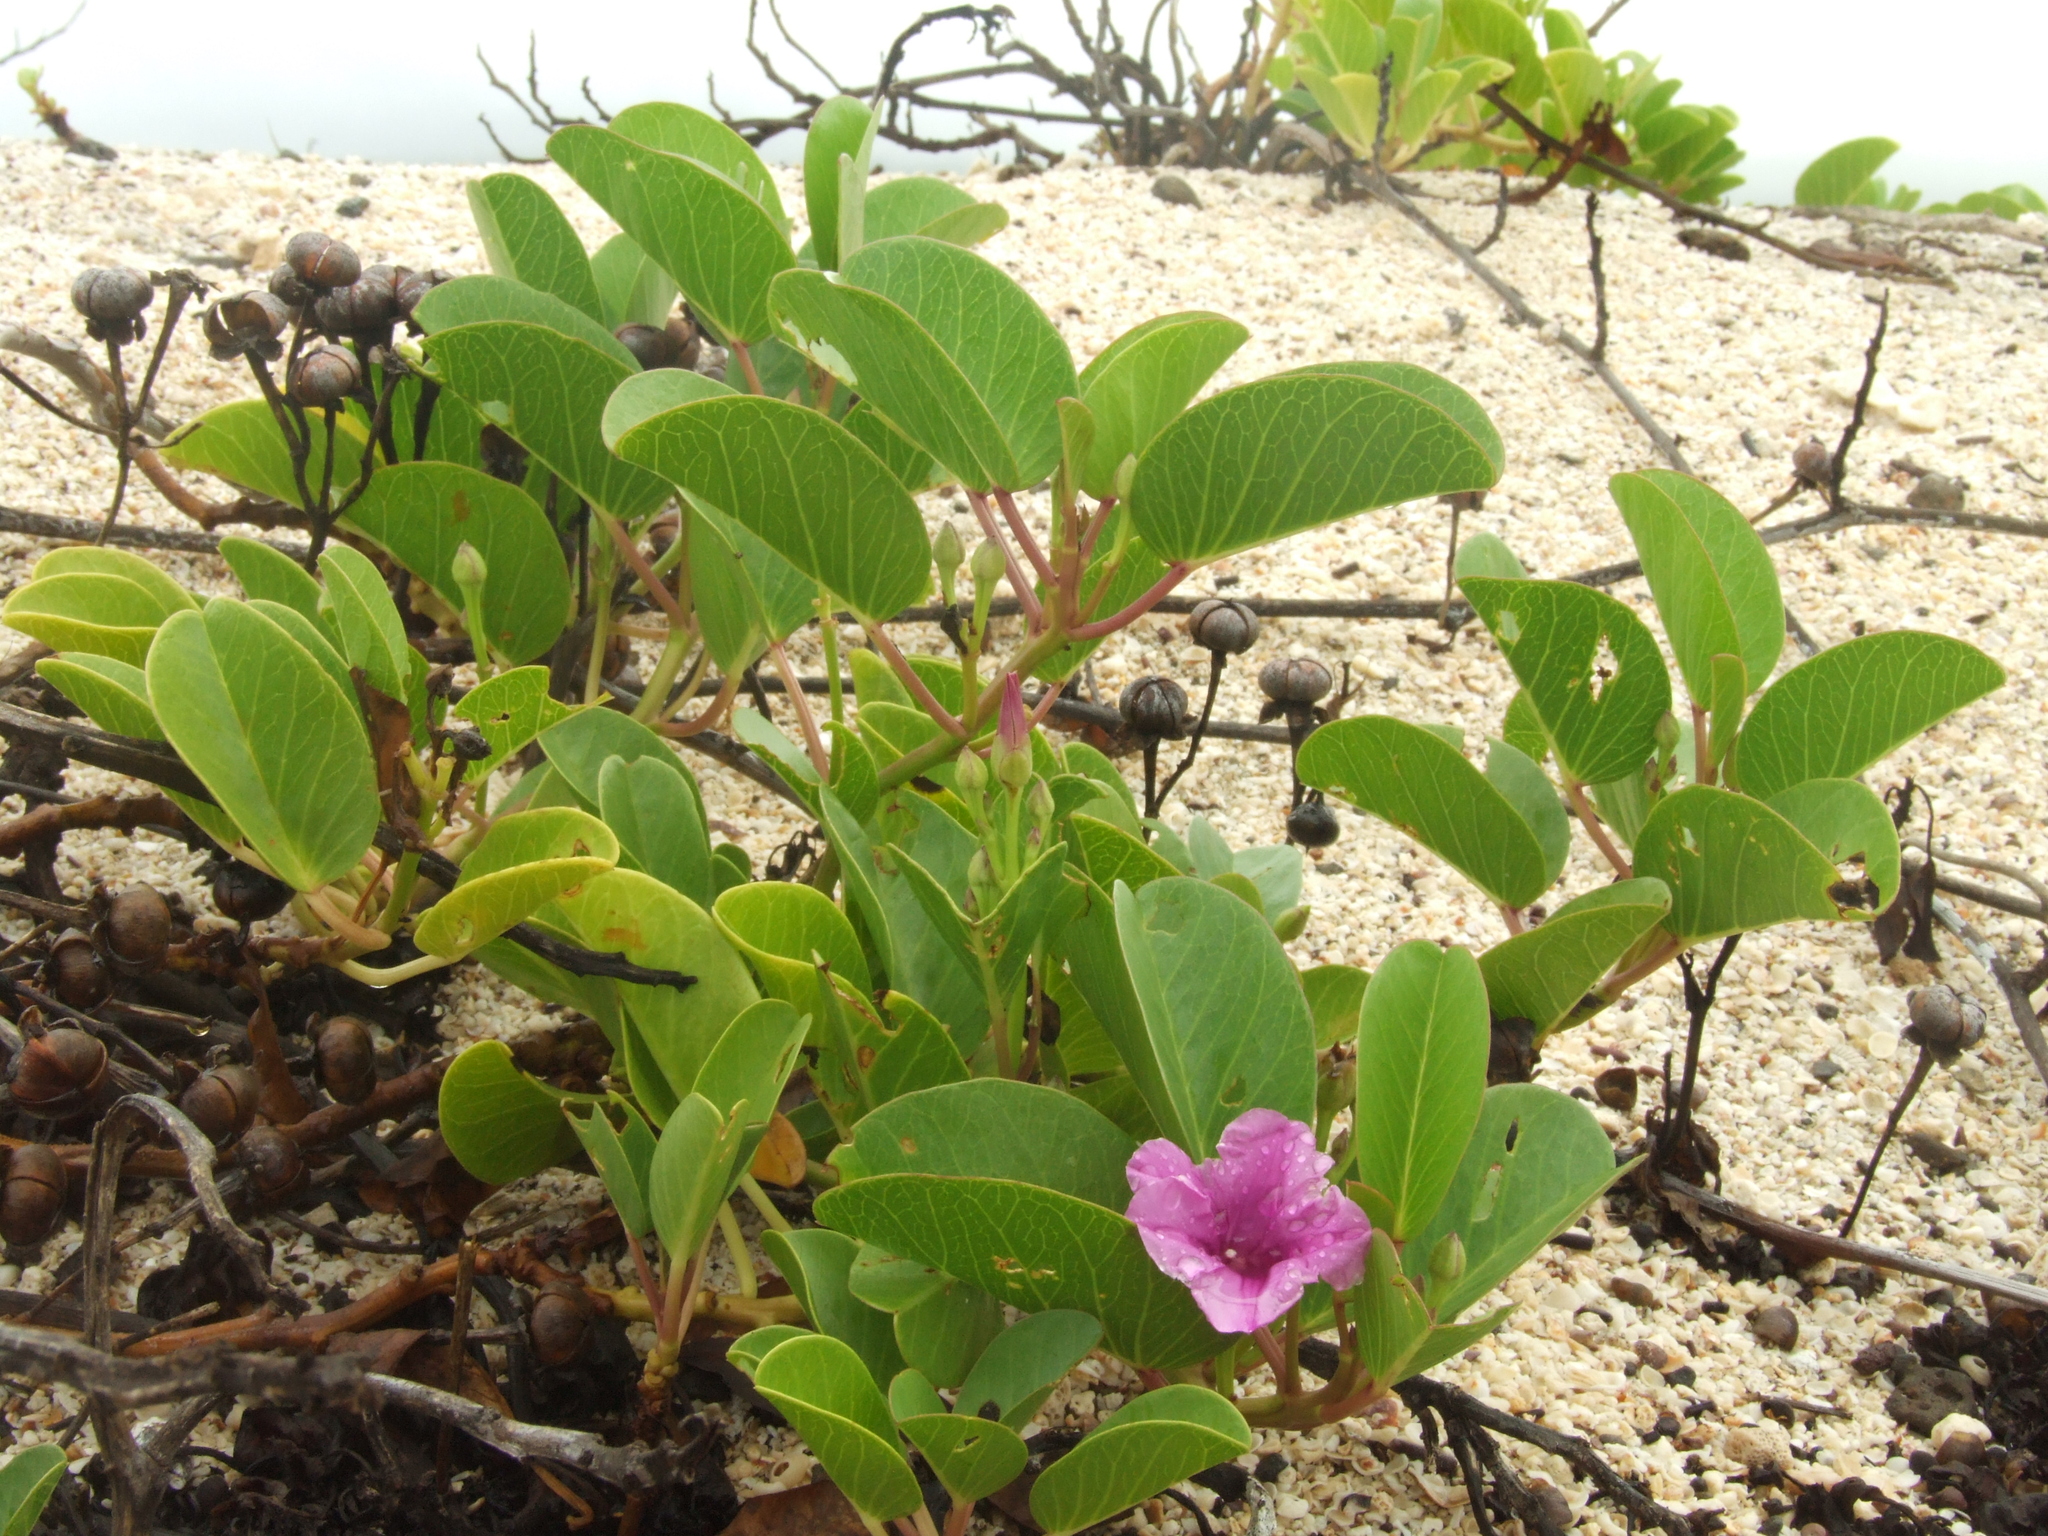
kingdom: Plantae
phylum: Tracheophyta
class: Magnoliopsida
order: Solanales
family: Convolvulaceae
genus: Ipomoea
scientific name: Ipomoea pes-caprae
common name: Beach morning glory
